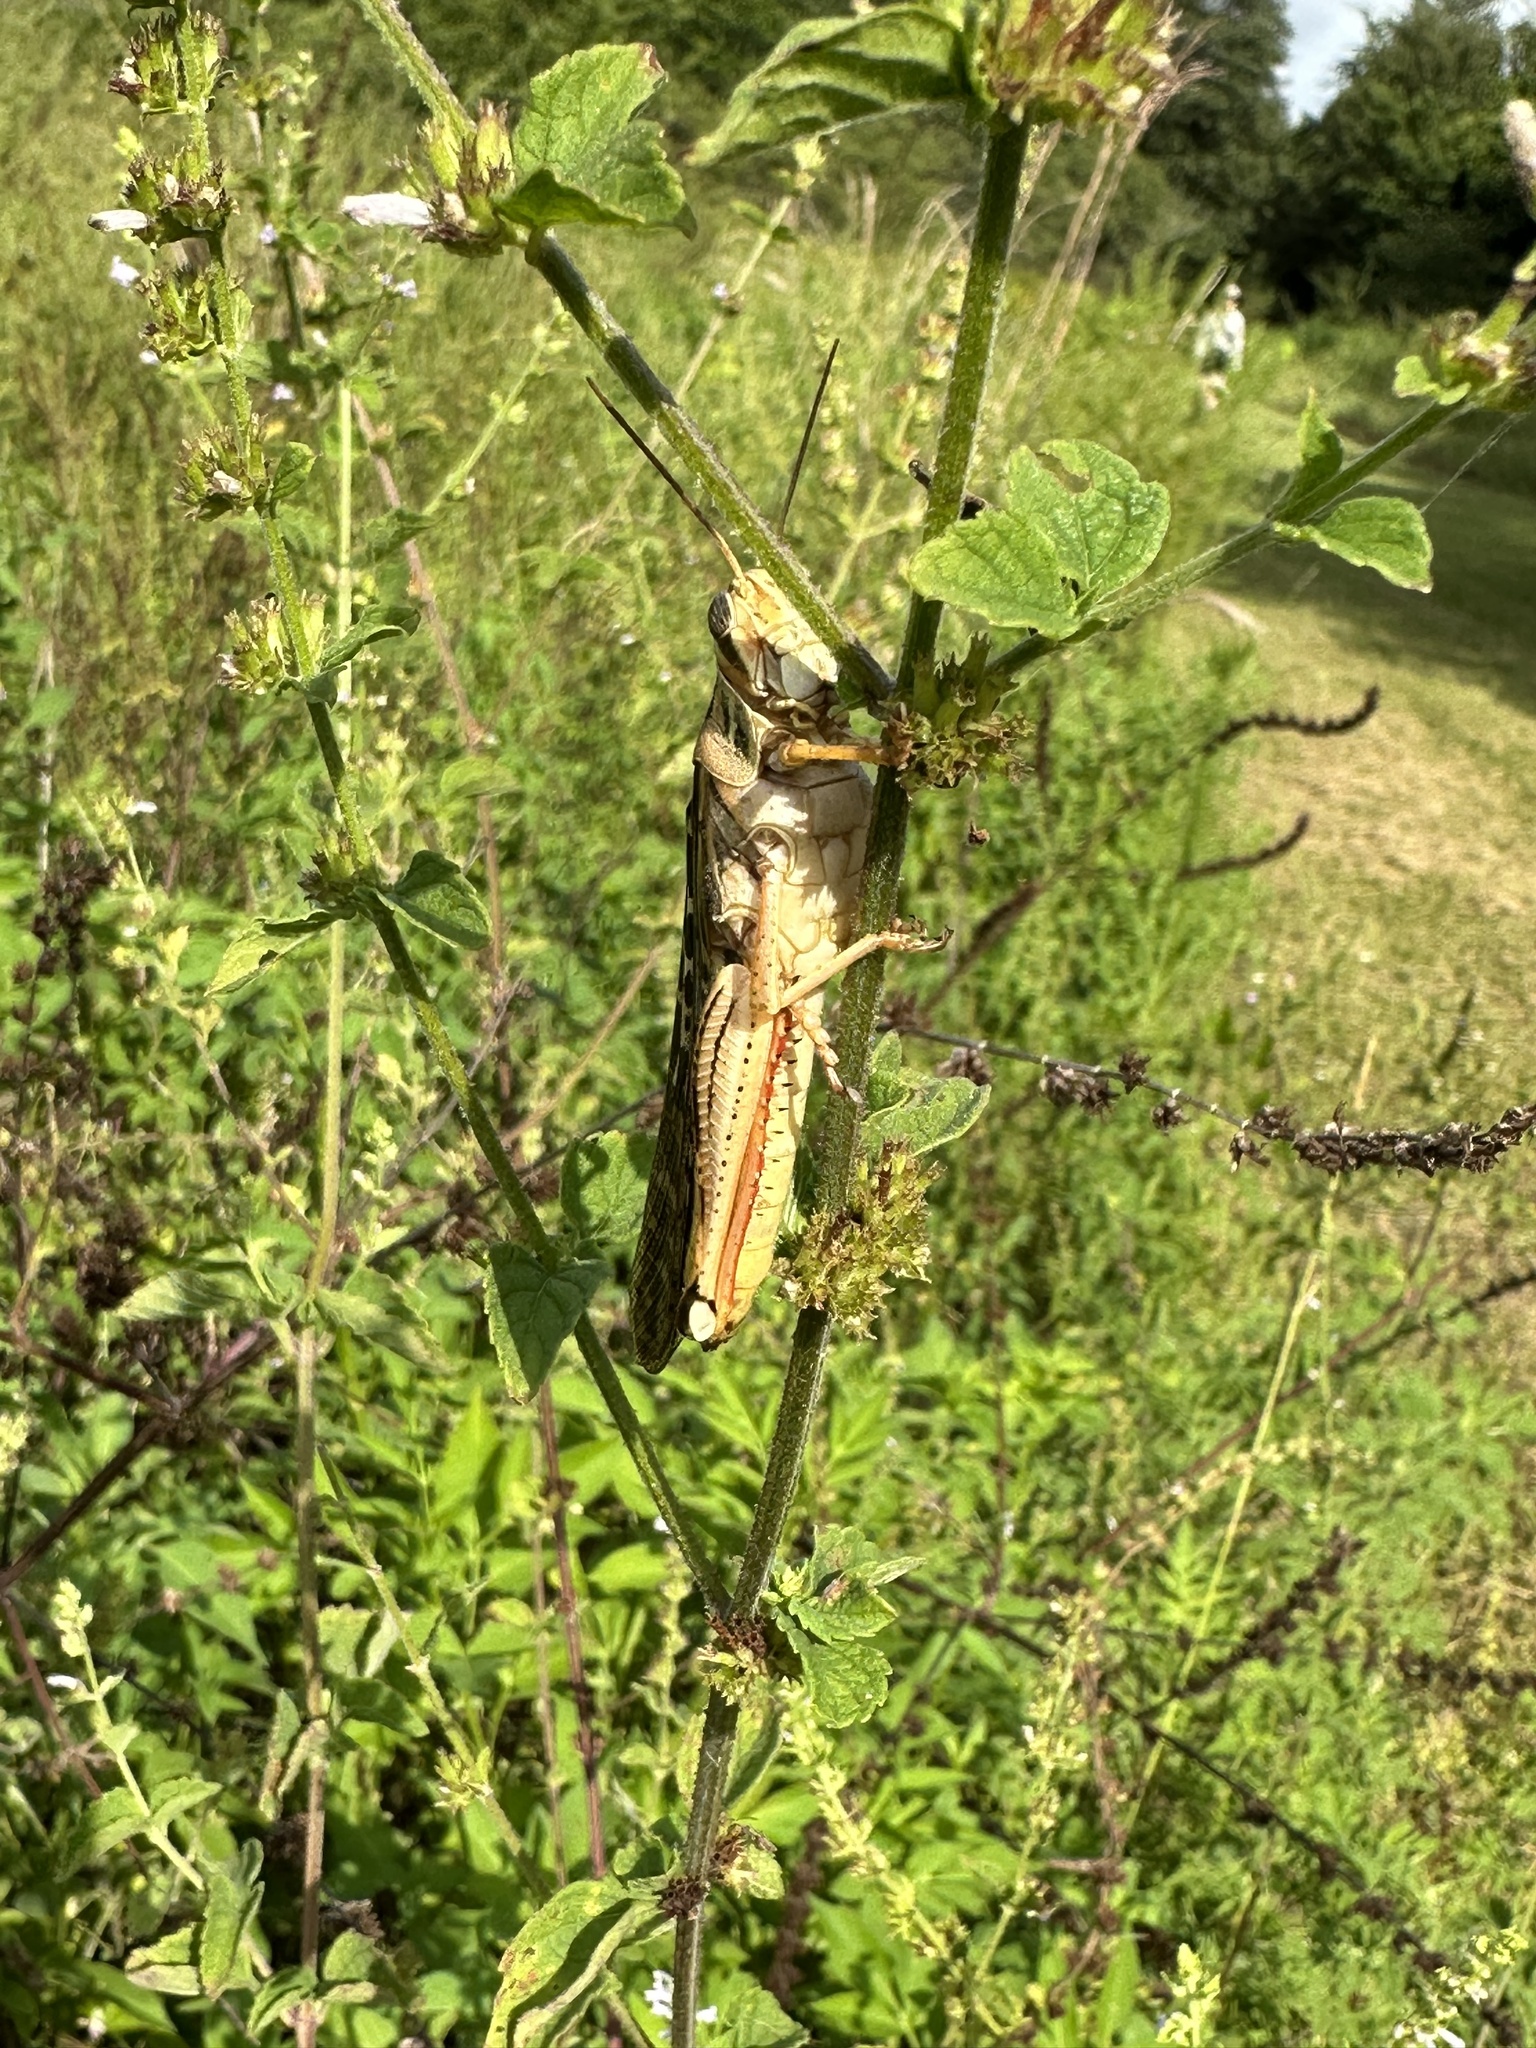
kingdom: Animalia
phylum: Arthropoda
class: Insecta
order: Orthoptera
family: Acrididae
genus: Schistocerca
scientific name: Schistocerca americana
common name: American bird locust
